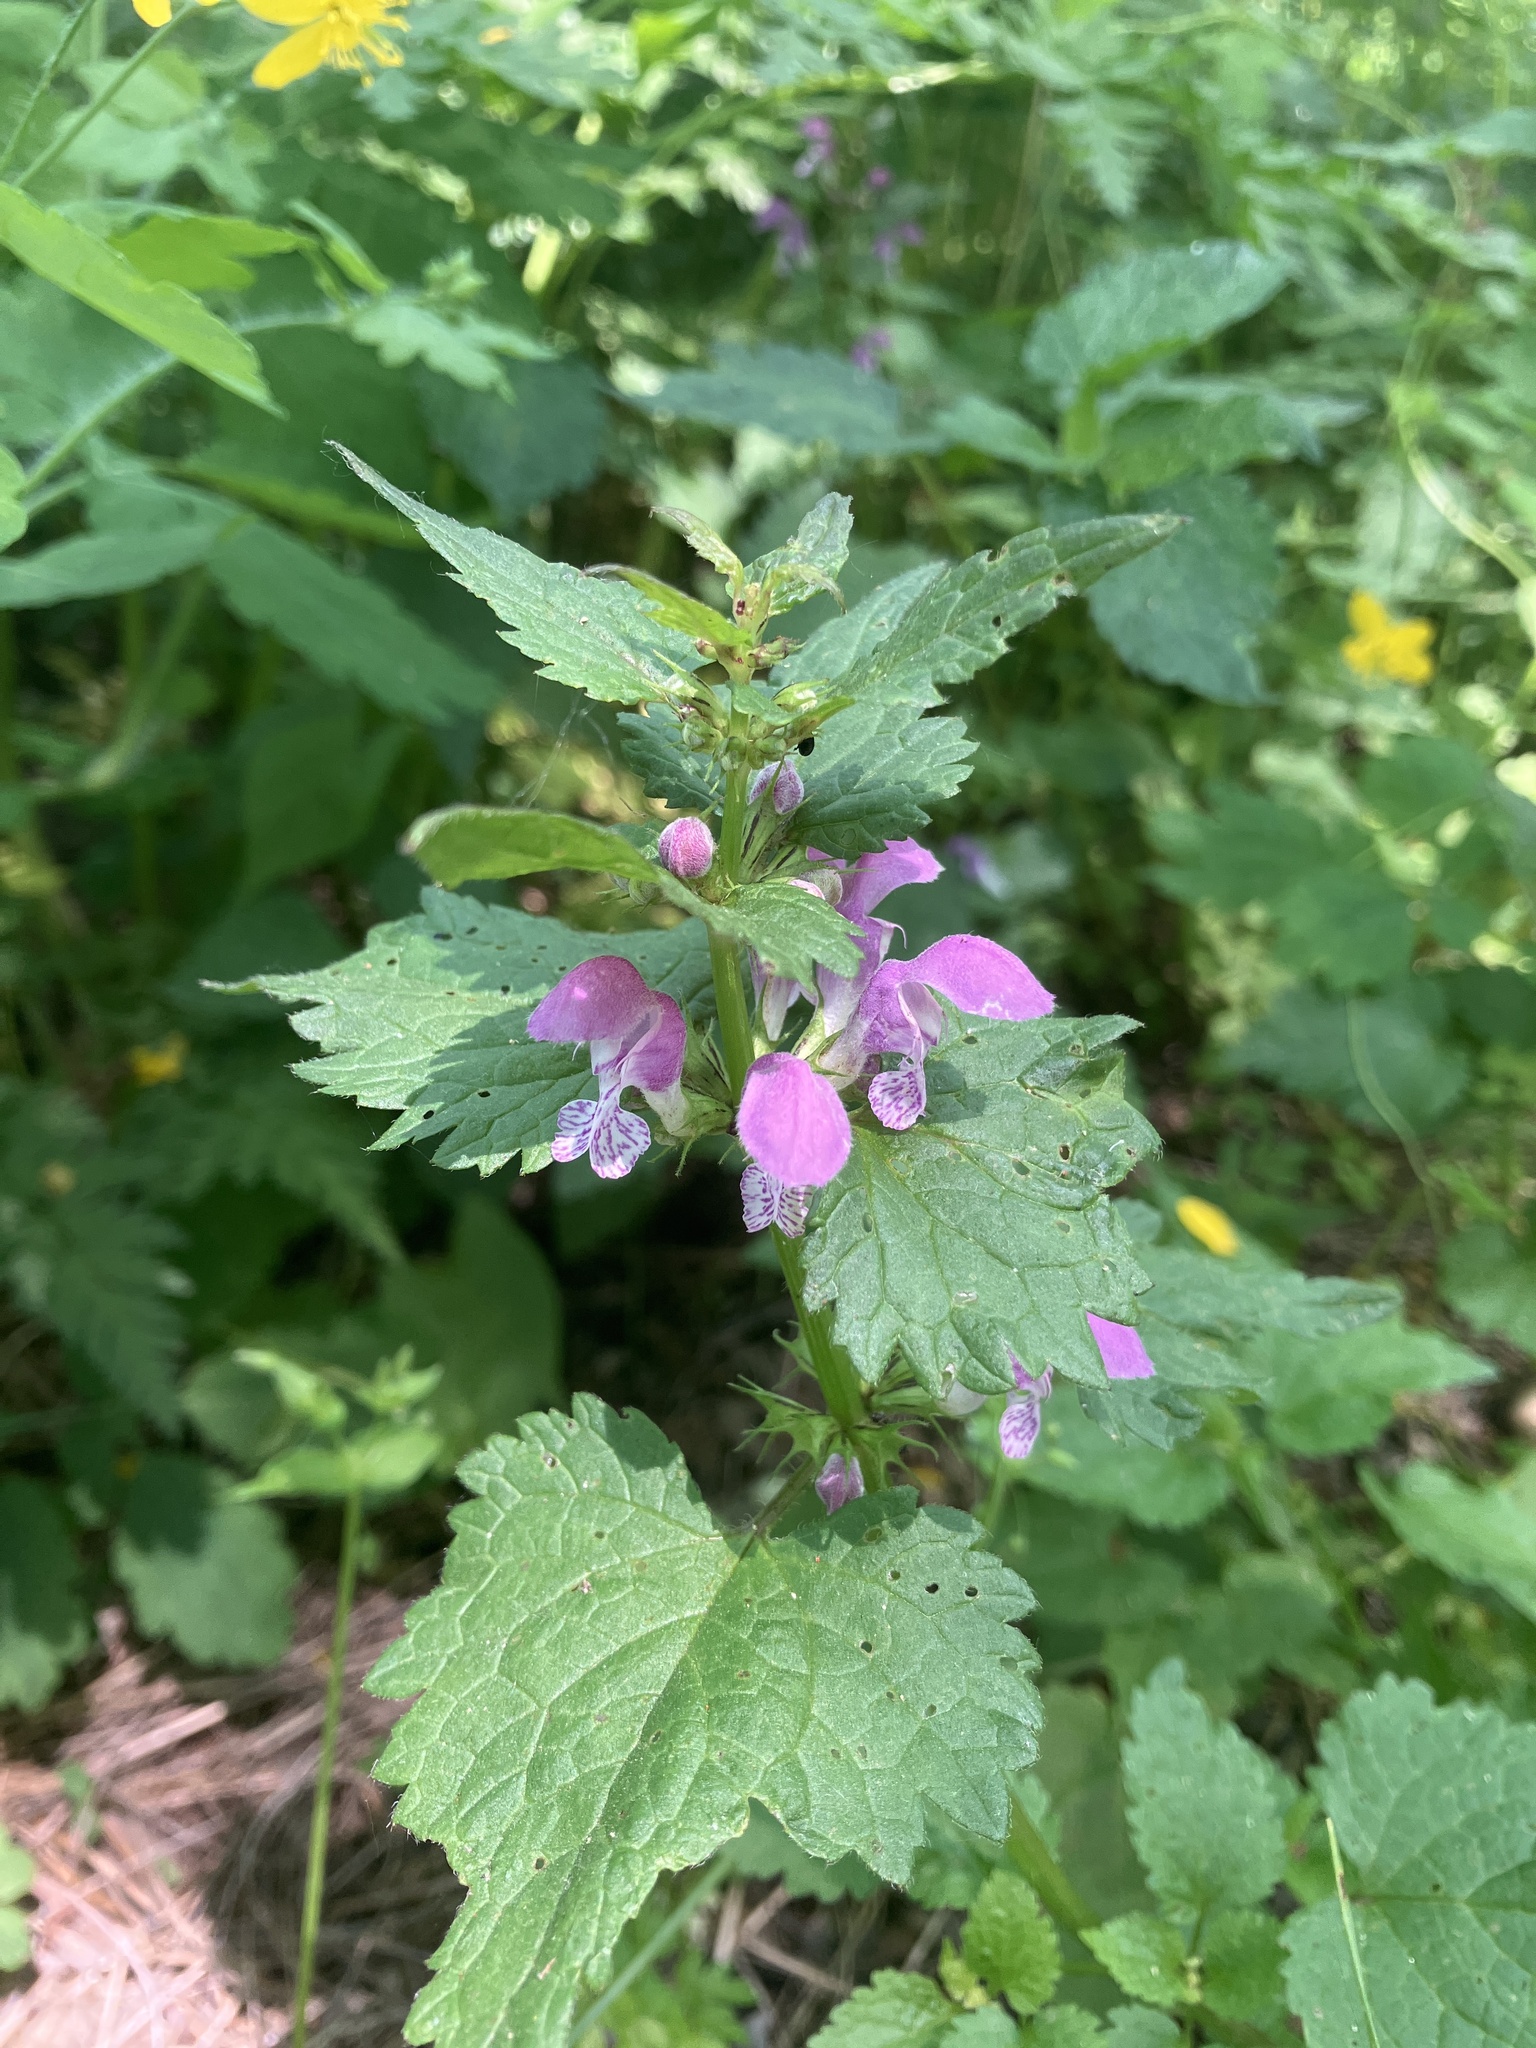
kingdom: Plantae
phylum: Tracheophyta
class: Magnoliopsida
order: Lamiales
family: Lamiaceae
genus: Lamium
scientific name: Lamium maculatum
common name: Spotted dead-nettle
